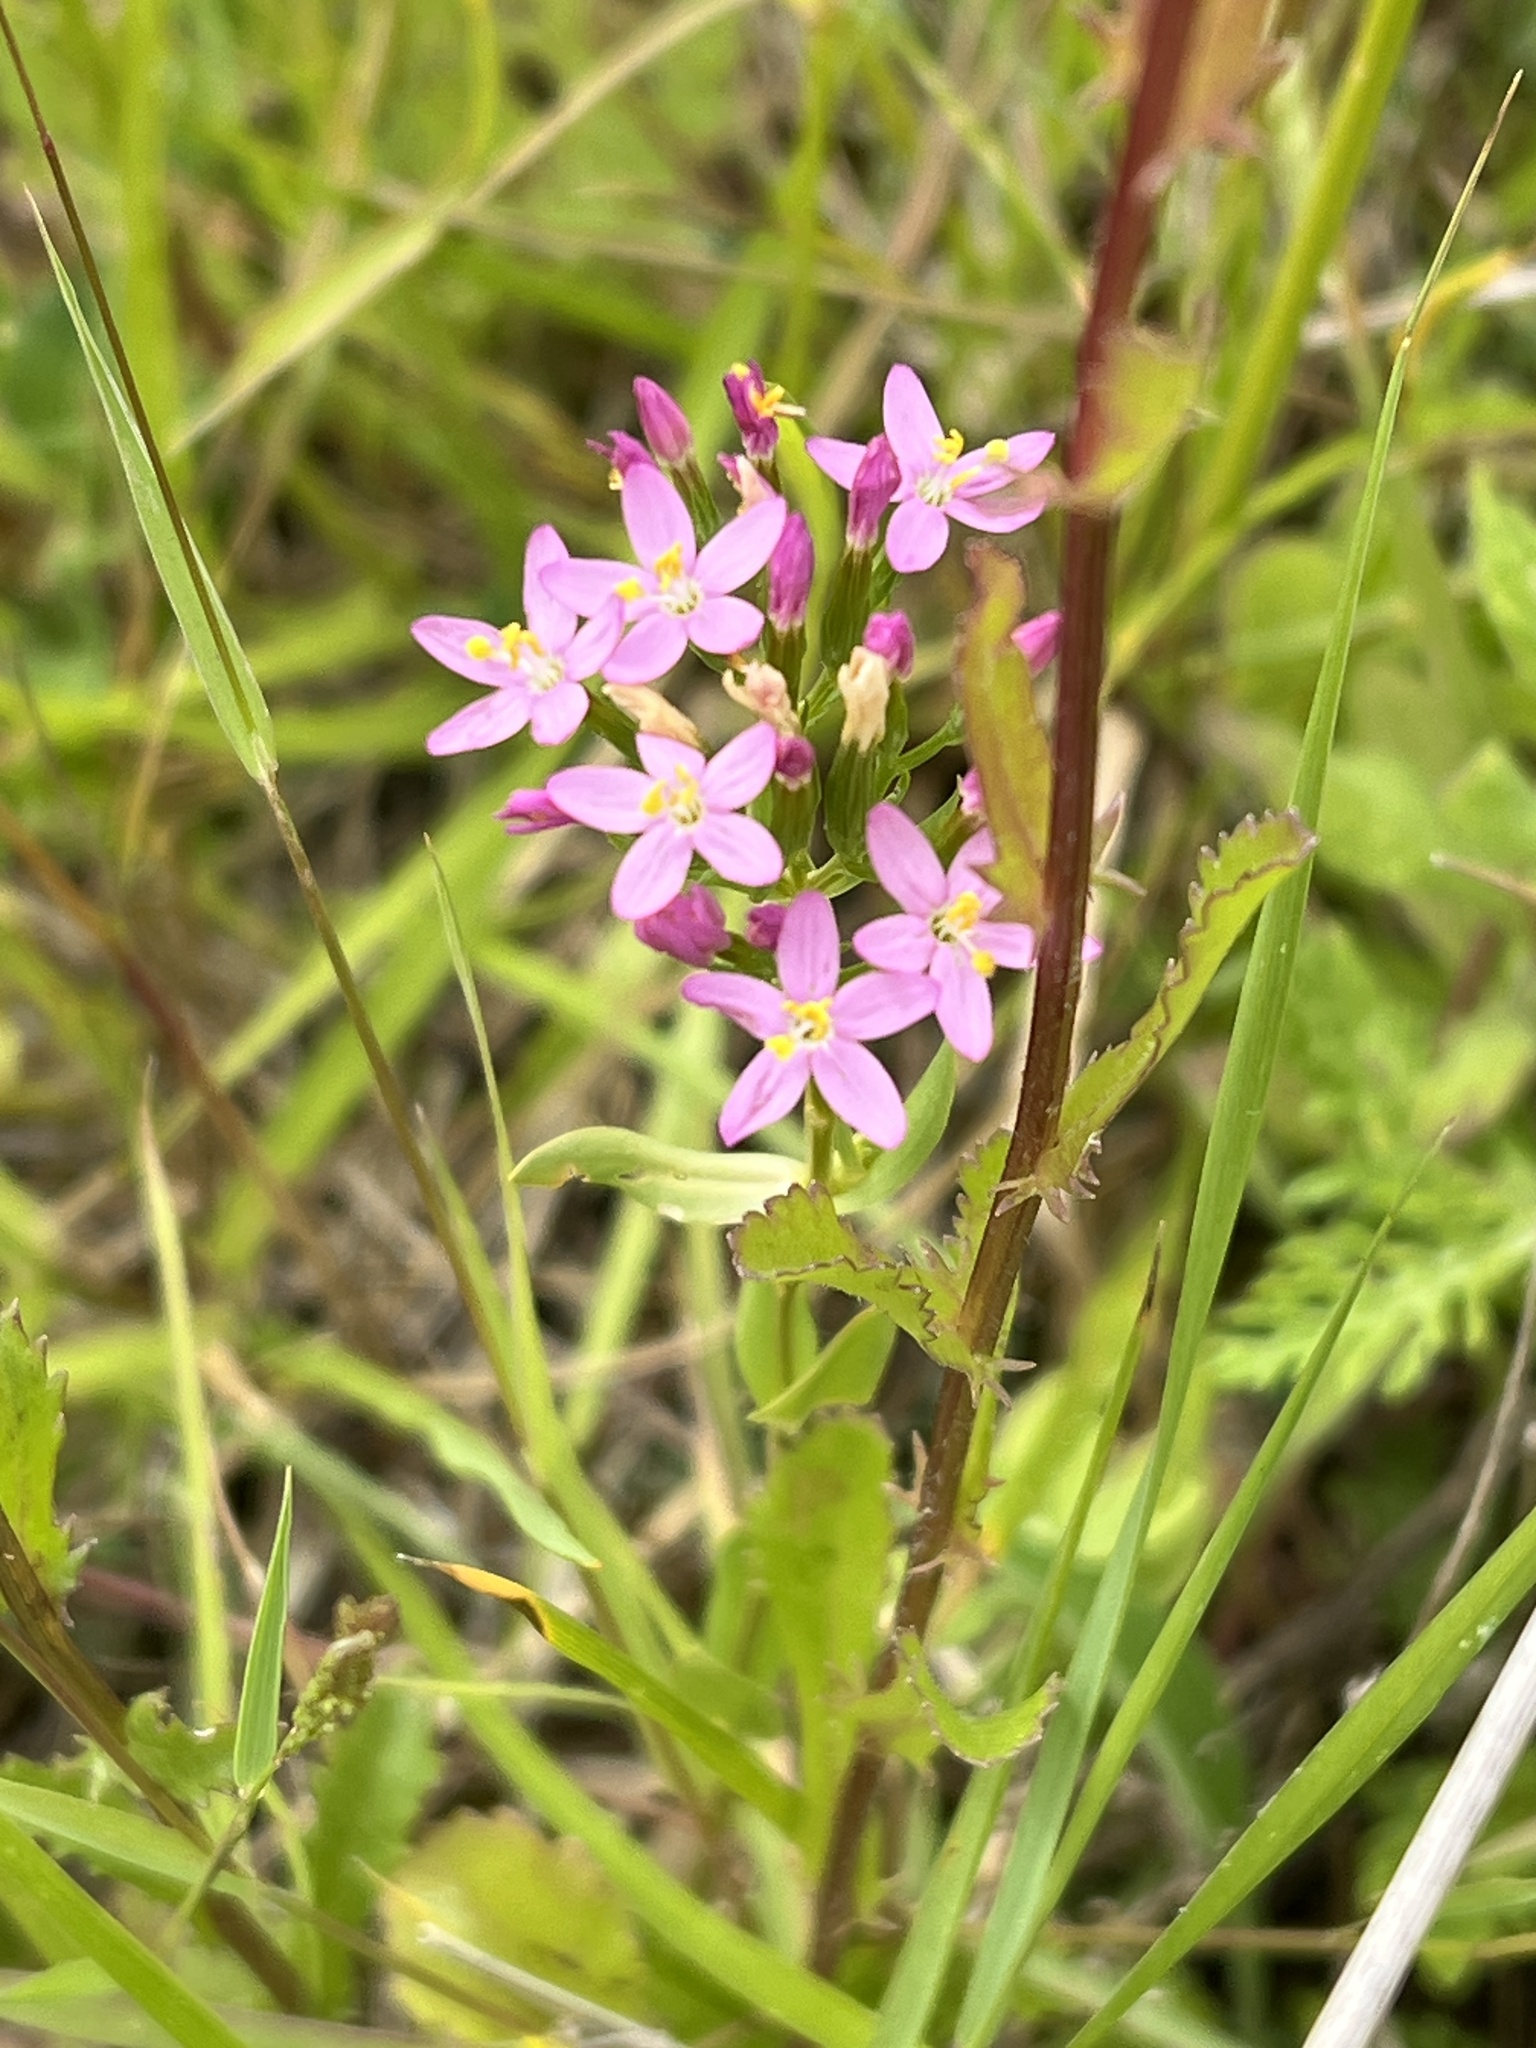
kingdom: Plantae
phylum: Tracheophyta
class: Magnoliopsida
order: Gentianales
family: Gentianaceae
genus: Centaurium
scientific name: Centaurium erythraea
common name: Common centaury
